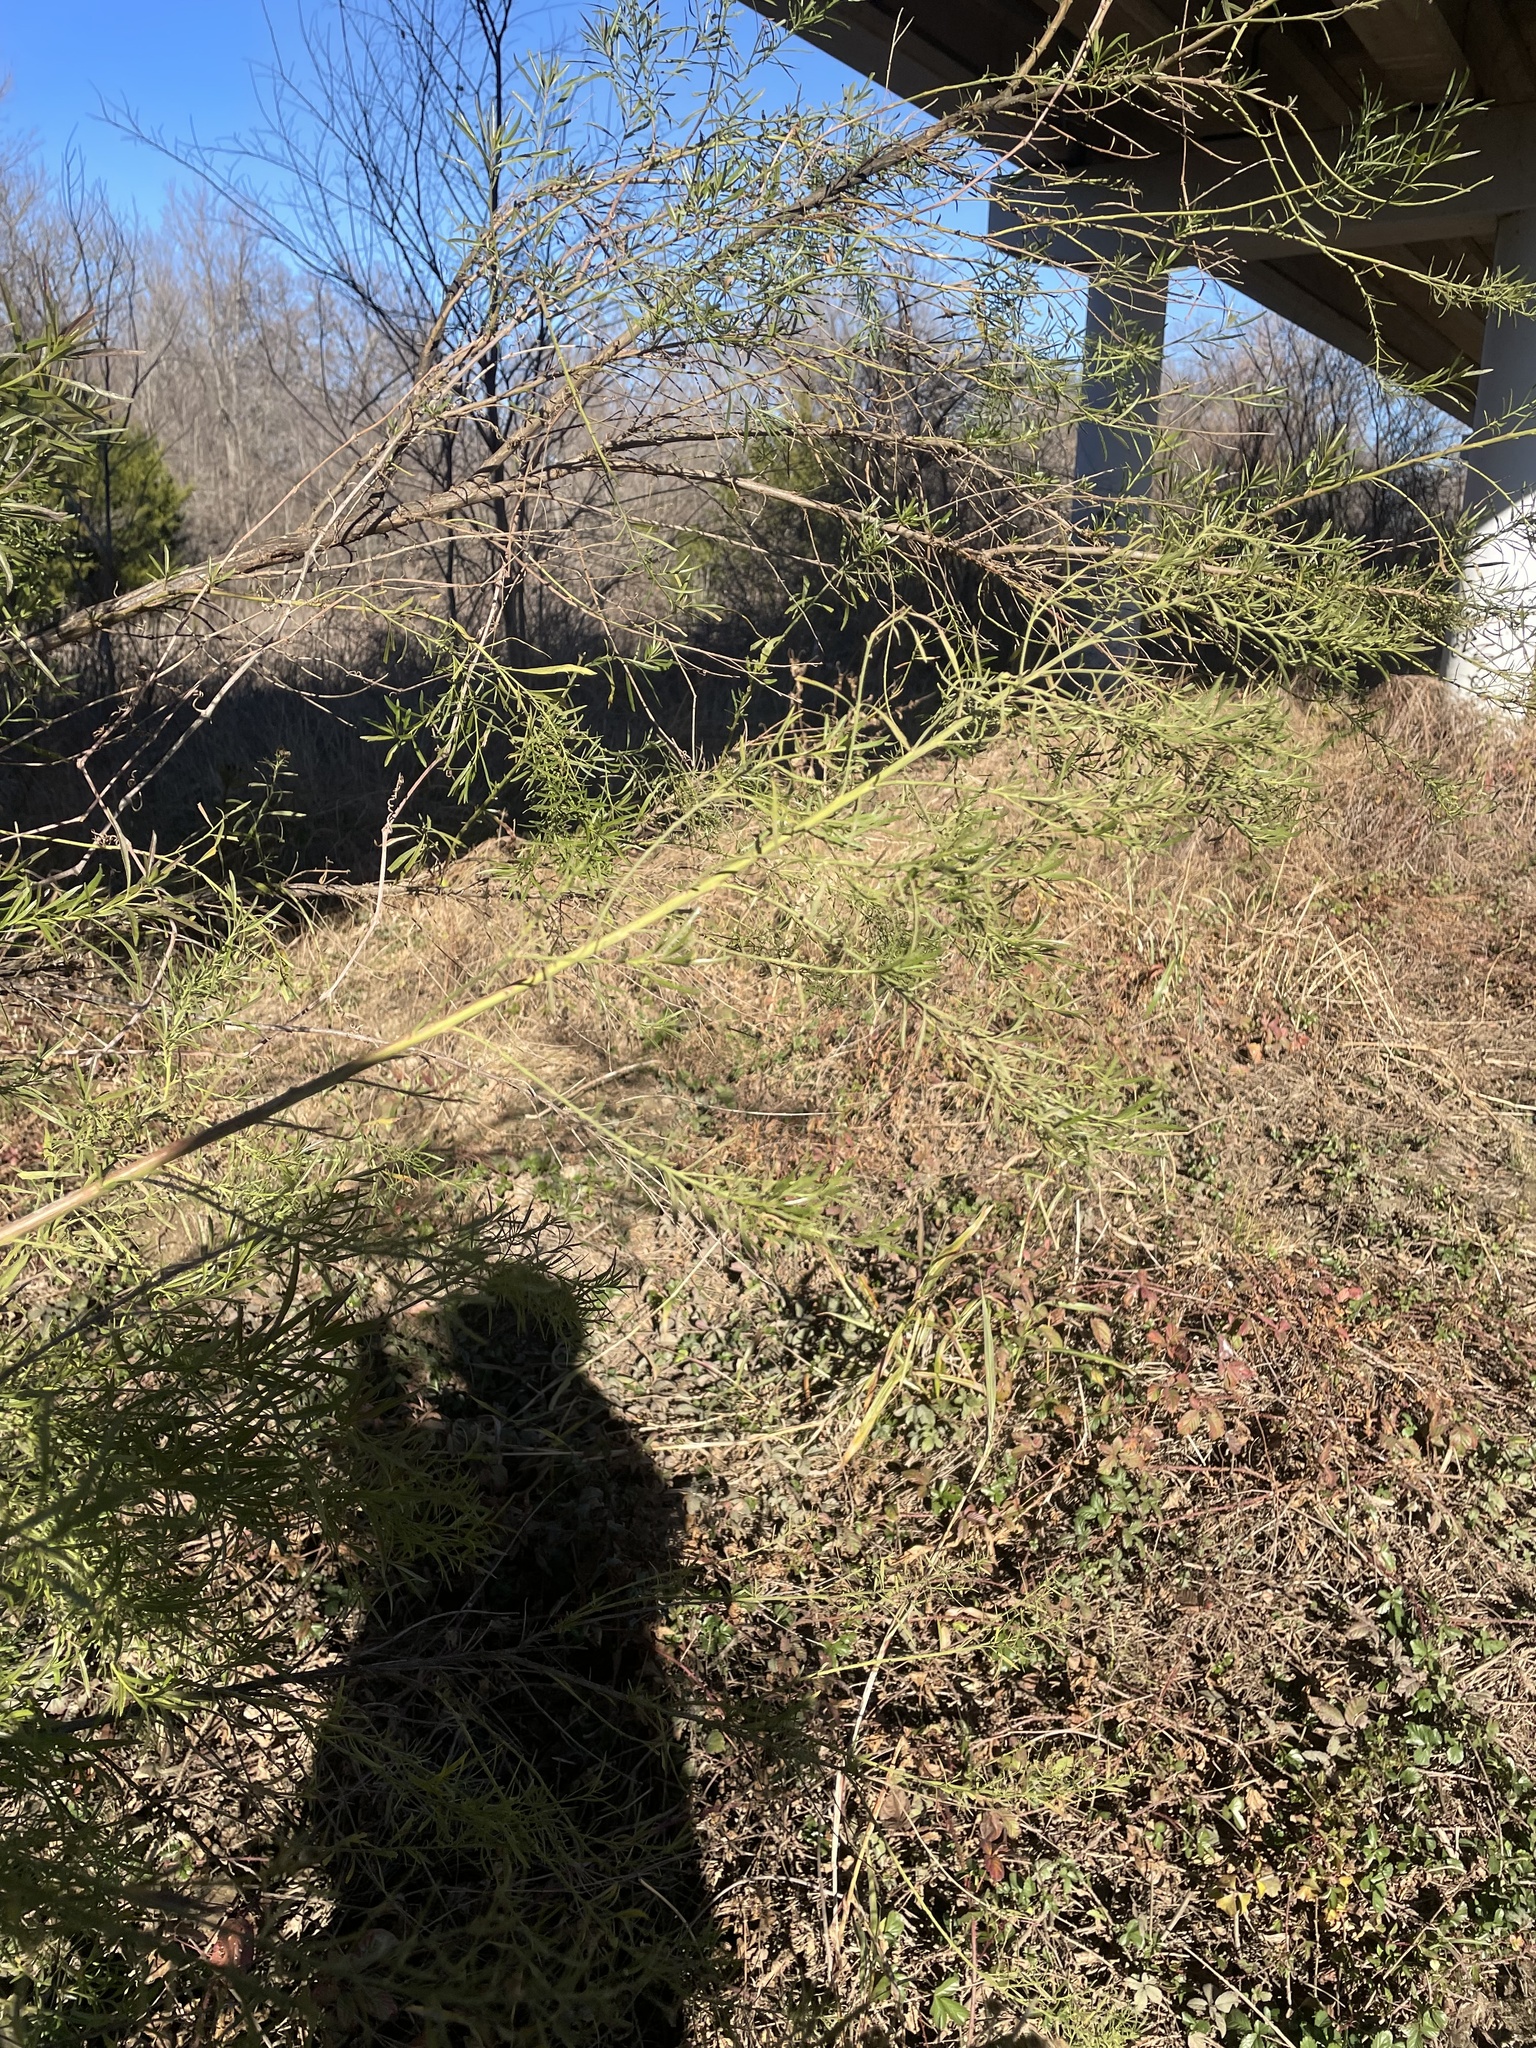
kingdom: Plantae
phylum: Tracheophyta
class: Magnoliopsida
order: Asterales
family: Asteraceae
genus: Baccharis
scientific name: Baccharis neglecta
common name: Roosevelt-weed
